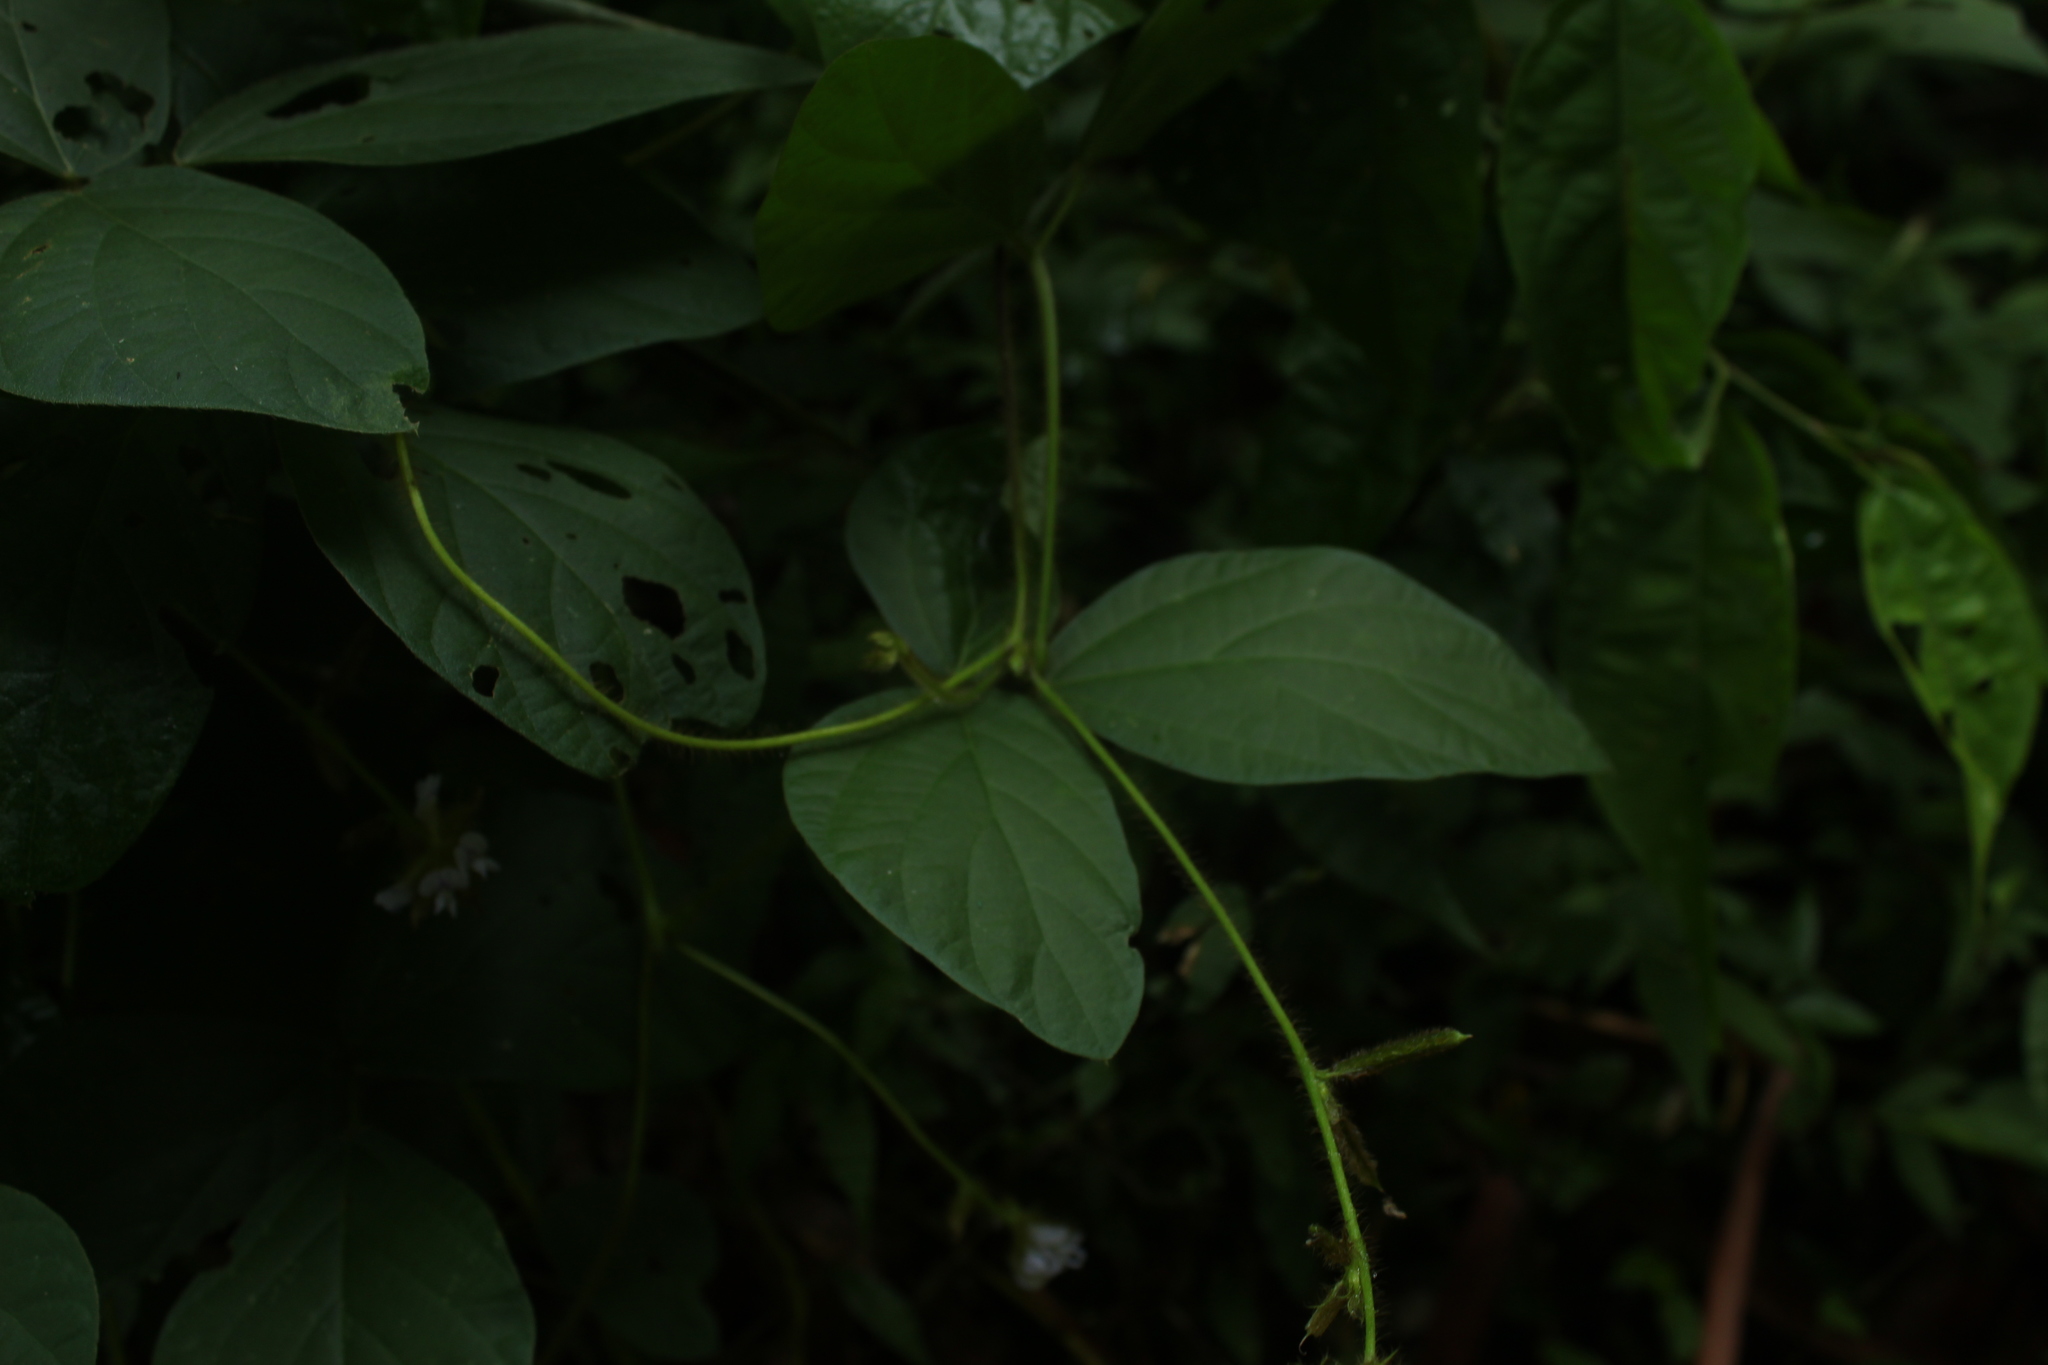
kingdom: Plantae
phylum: Tracheophyta
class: Magnoliopsida
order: Fabales
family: Fabaceae
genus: Calopogonium
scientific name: Calopogonium mucunoides
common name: Calopo
